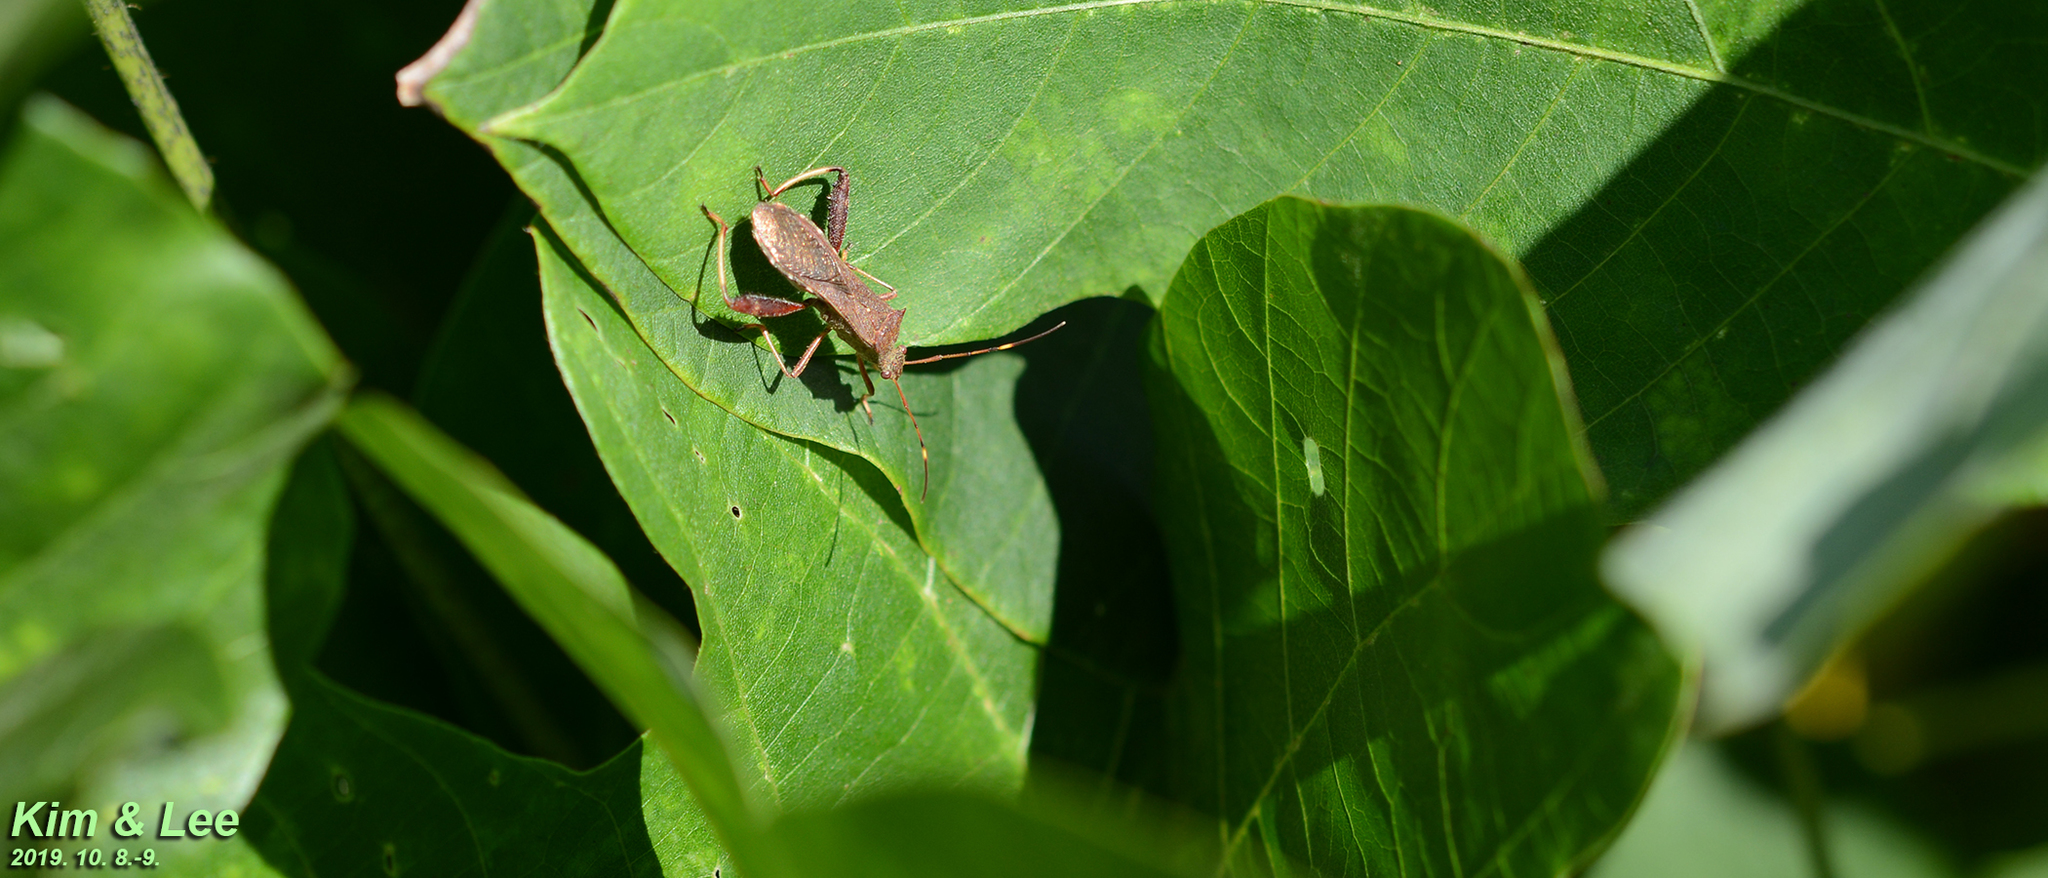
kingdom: Animalia
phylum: Arthropoda
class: Insecta
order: Hemiptera
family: Alydidae
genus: Riptortus
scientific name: Riptortus pedestris
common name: Bean bug
